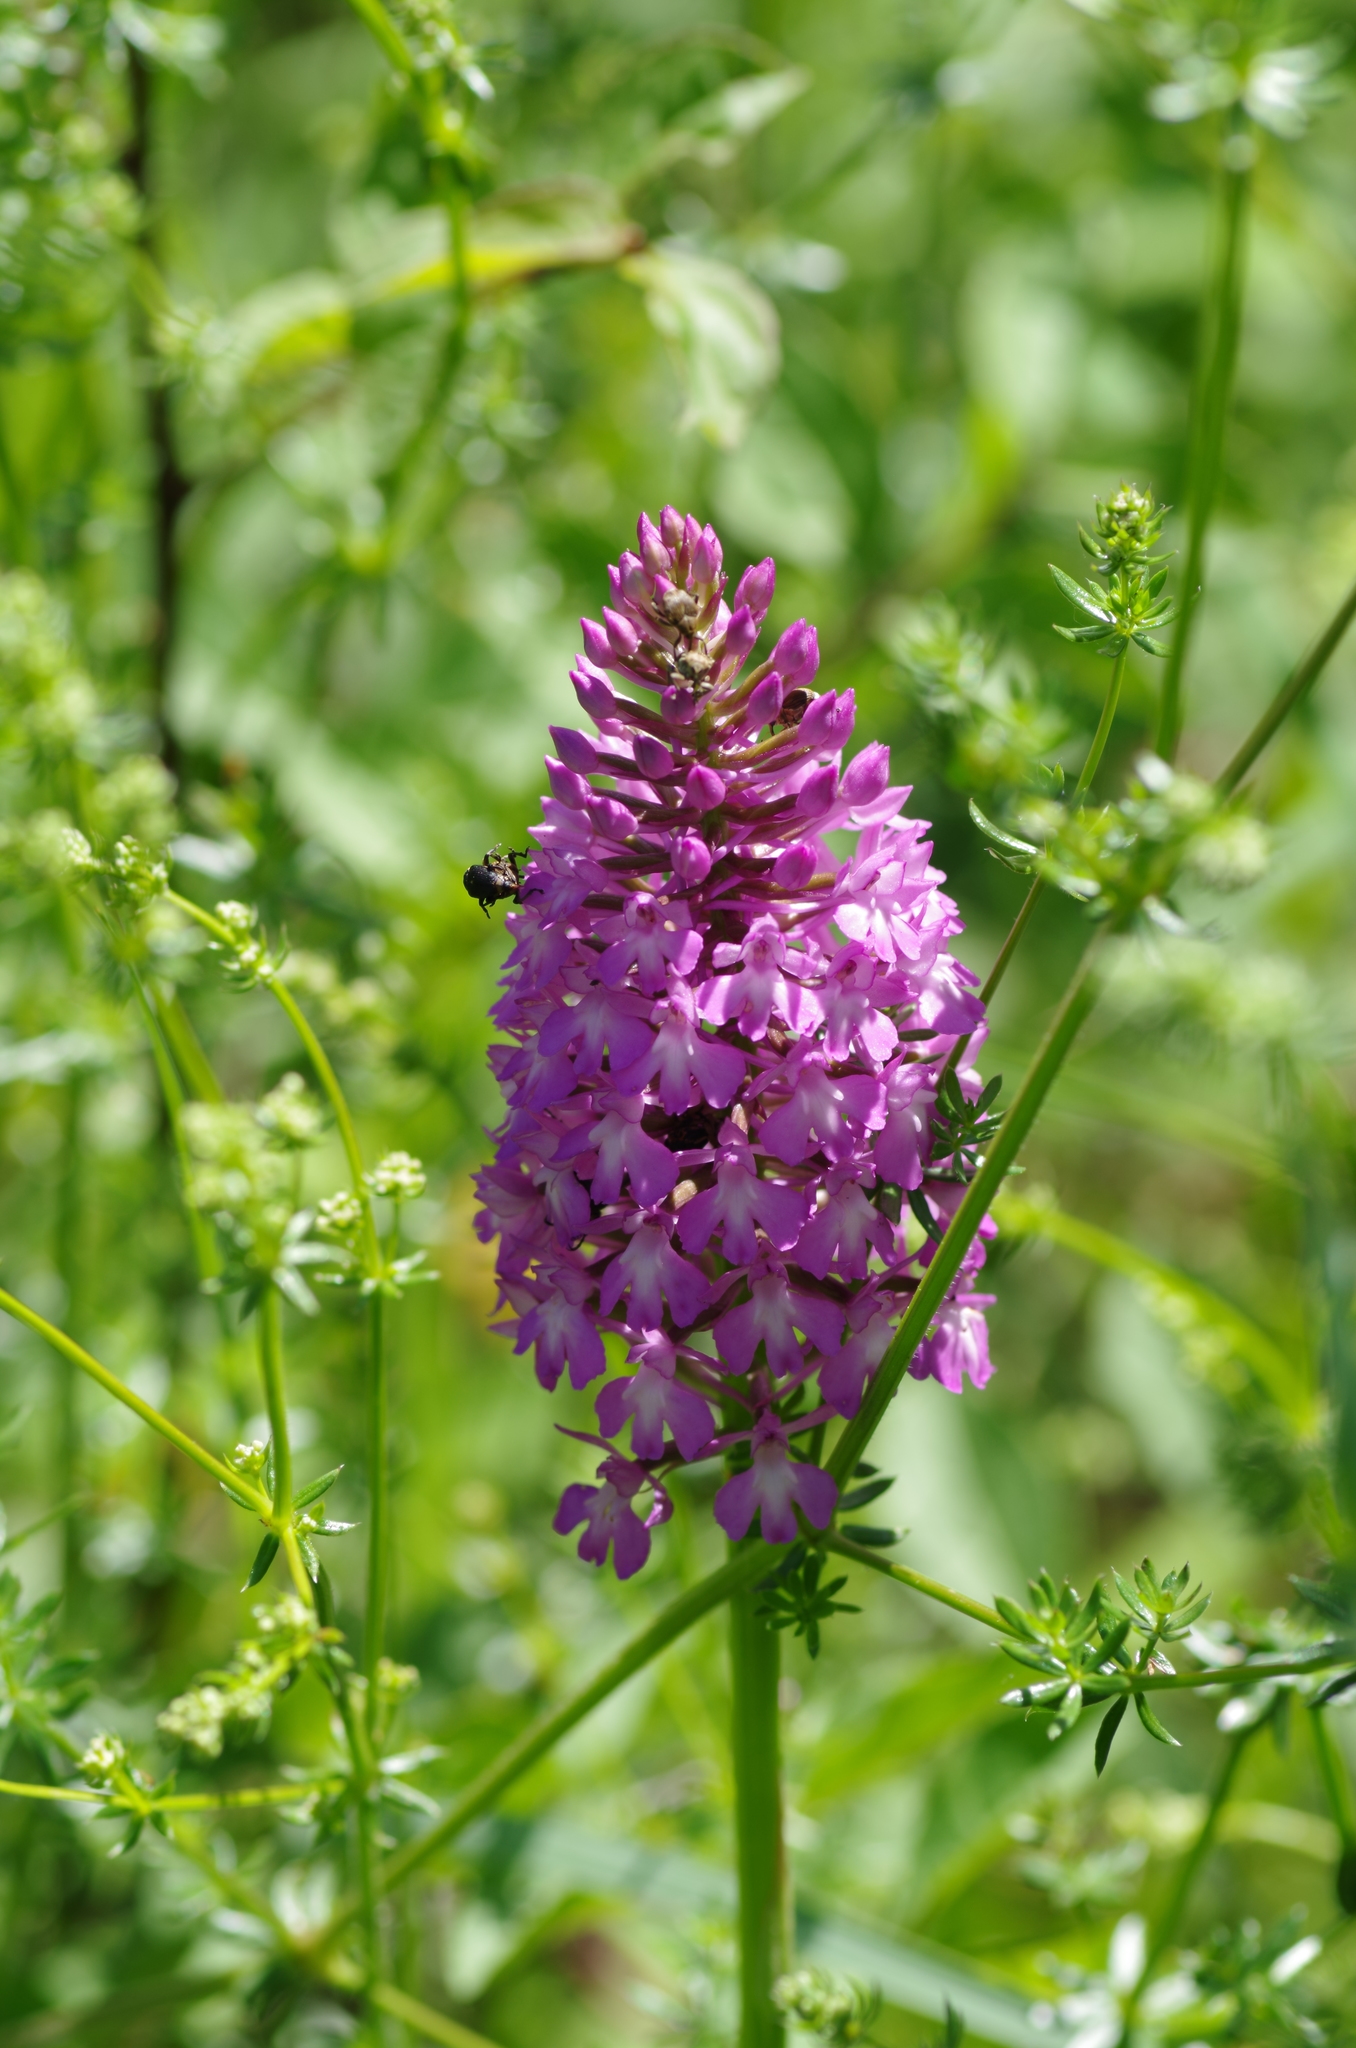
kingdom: Plantae
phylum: Tracheophyta
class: Liliopsida
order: Asparagales
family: Orchidaceae
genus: Anacamptis
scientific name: Anacamptis pyramidalis
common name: Pyramidal orchid
